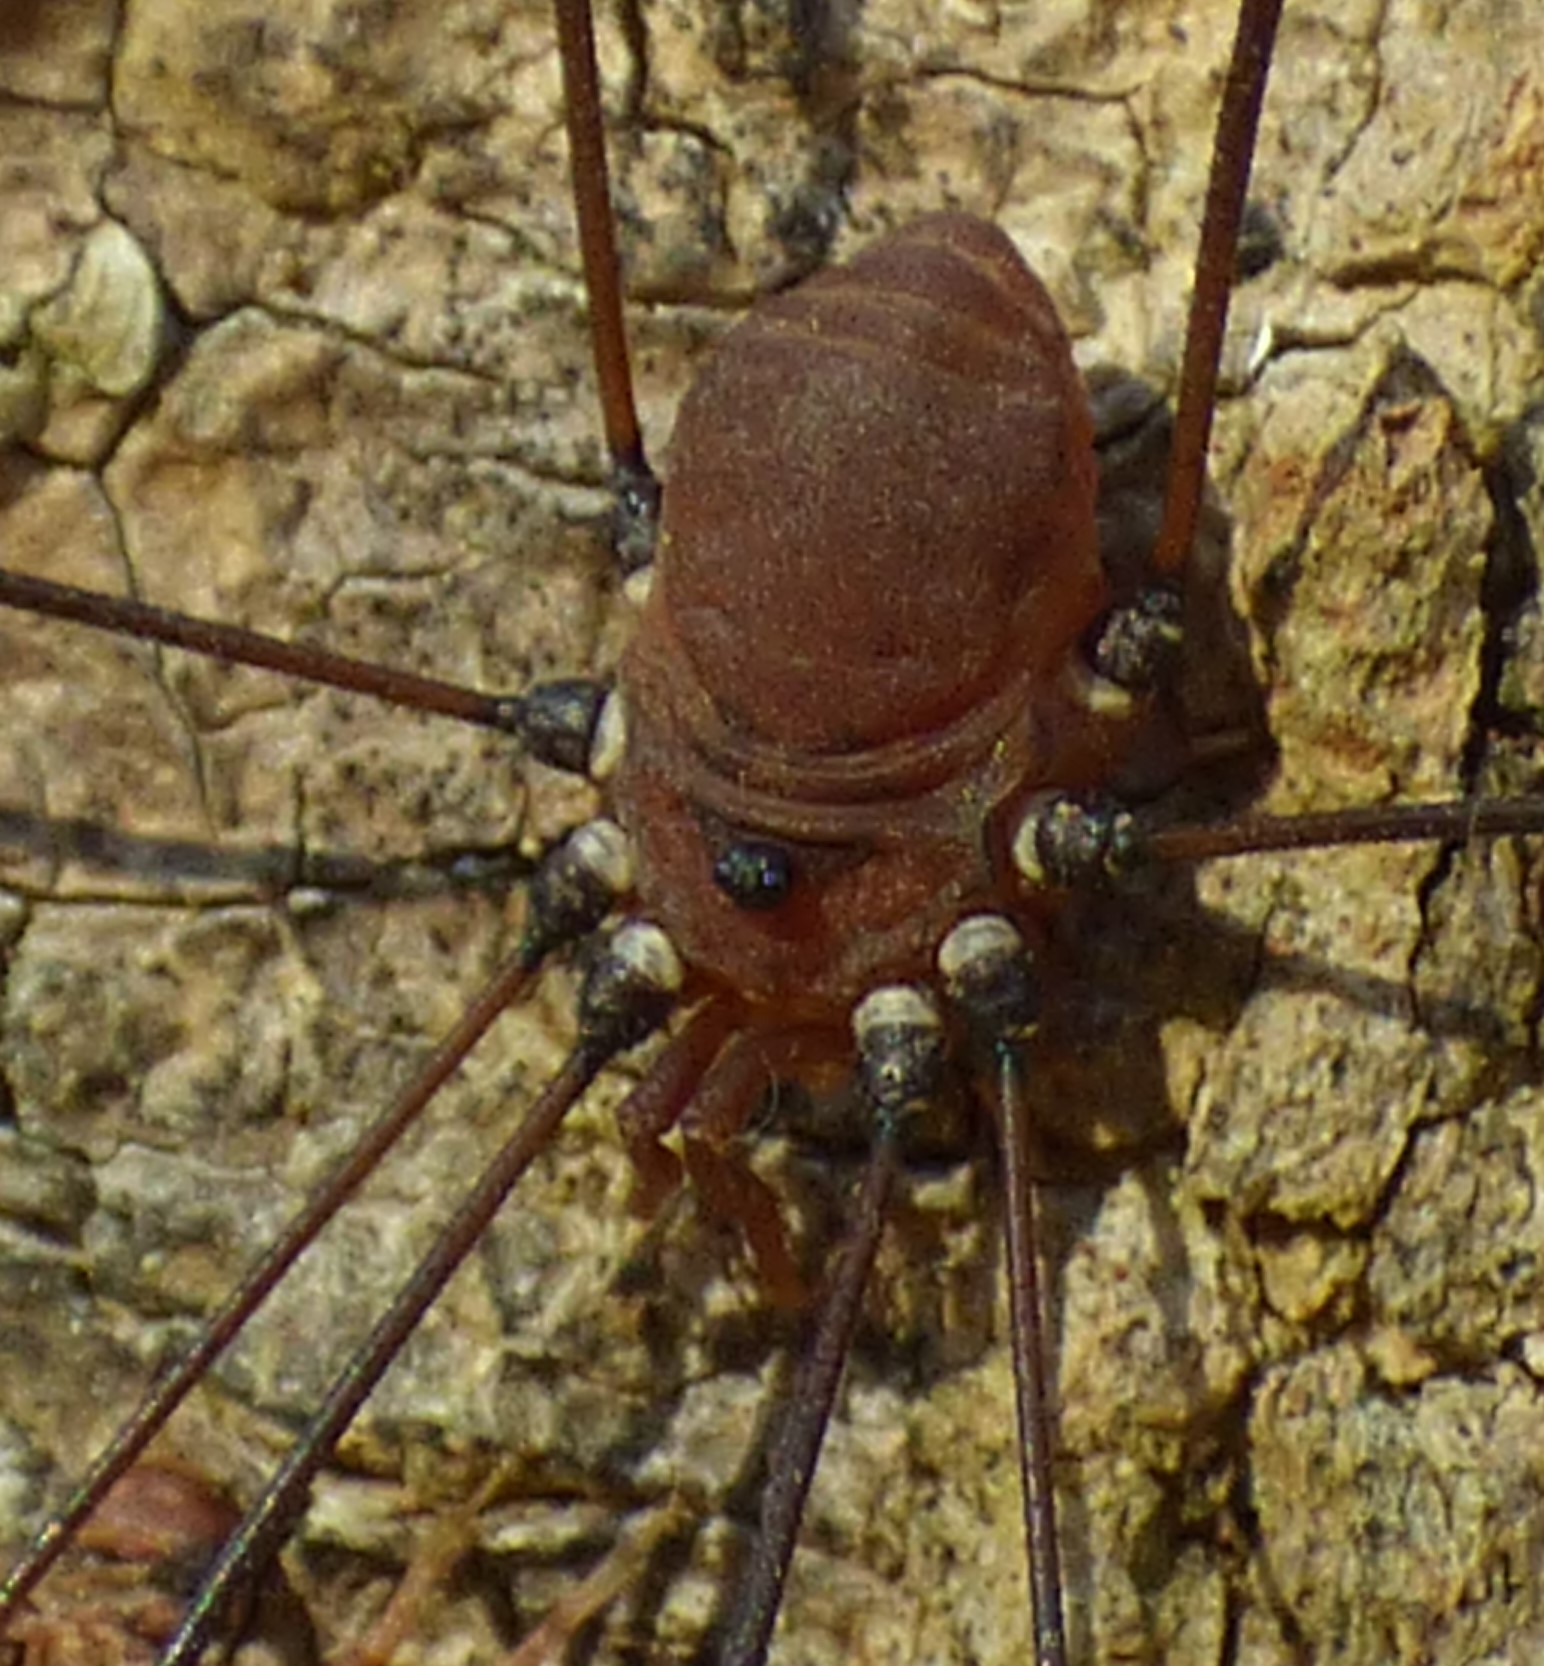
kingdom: Animalia
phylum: Arthropoda
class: Arachnida
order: Opiliones
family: Sclerosomatidae
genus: Leiobunum
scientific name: Leiobunum vittatum
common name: Eastern harvestman
